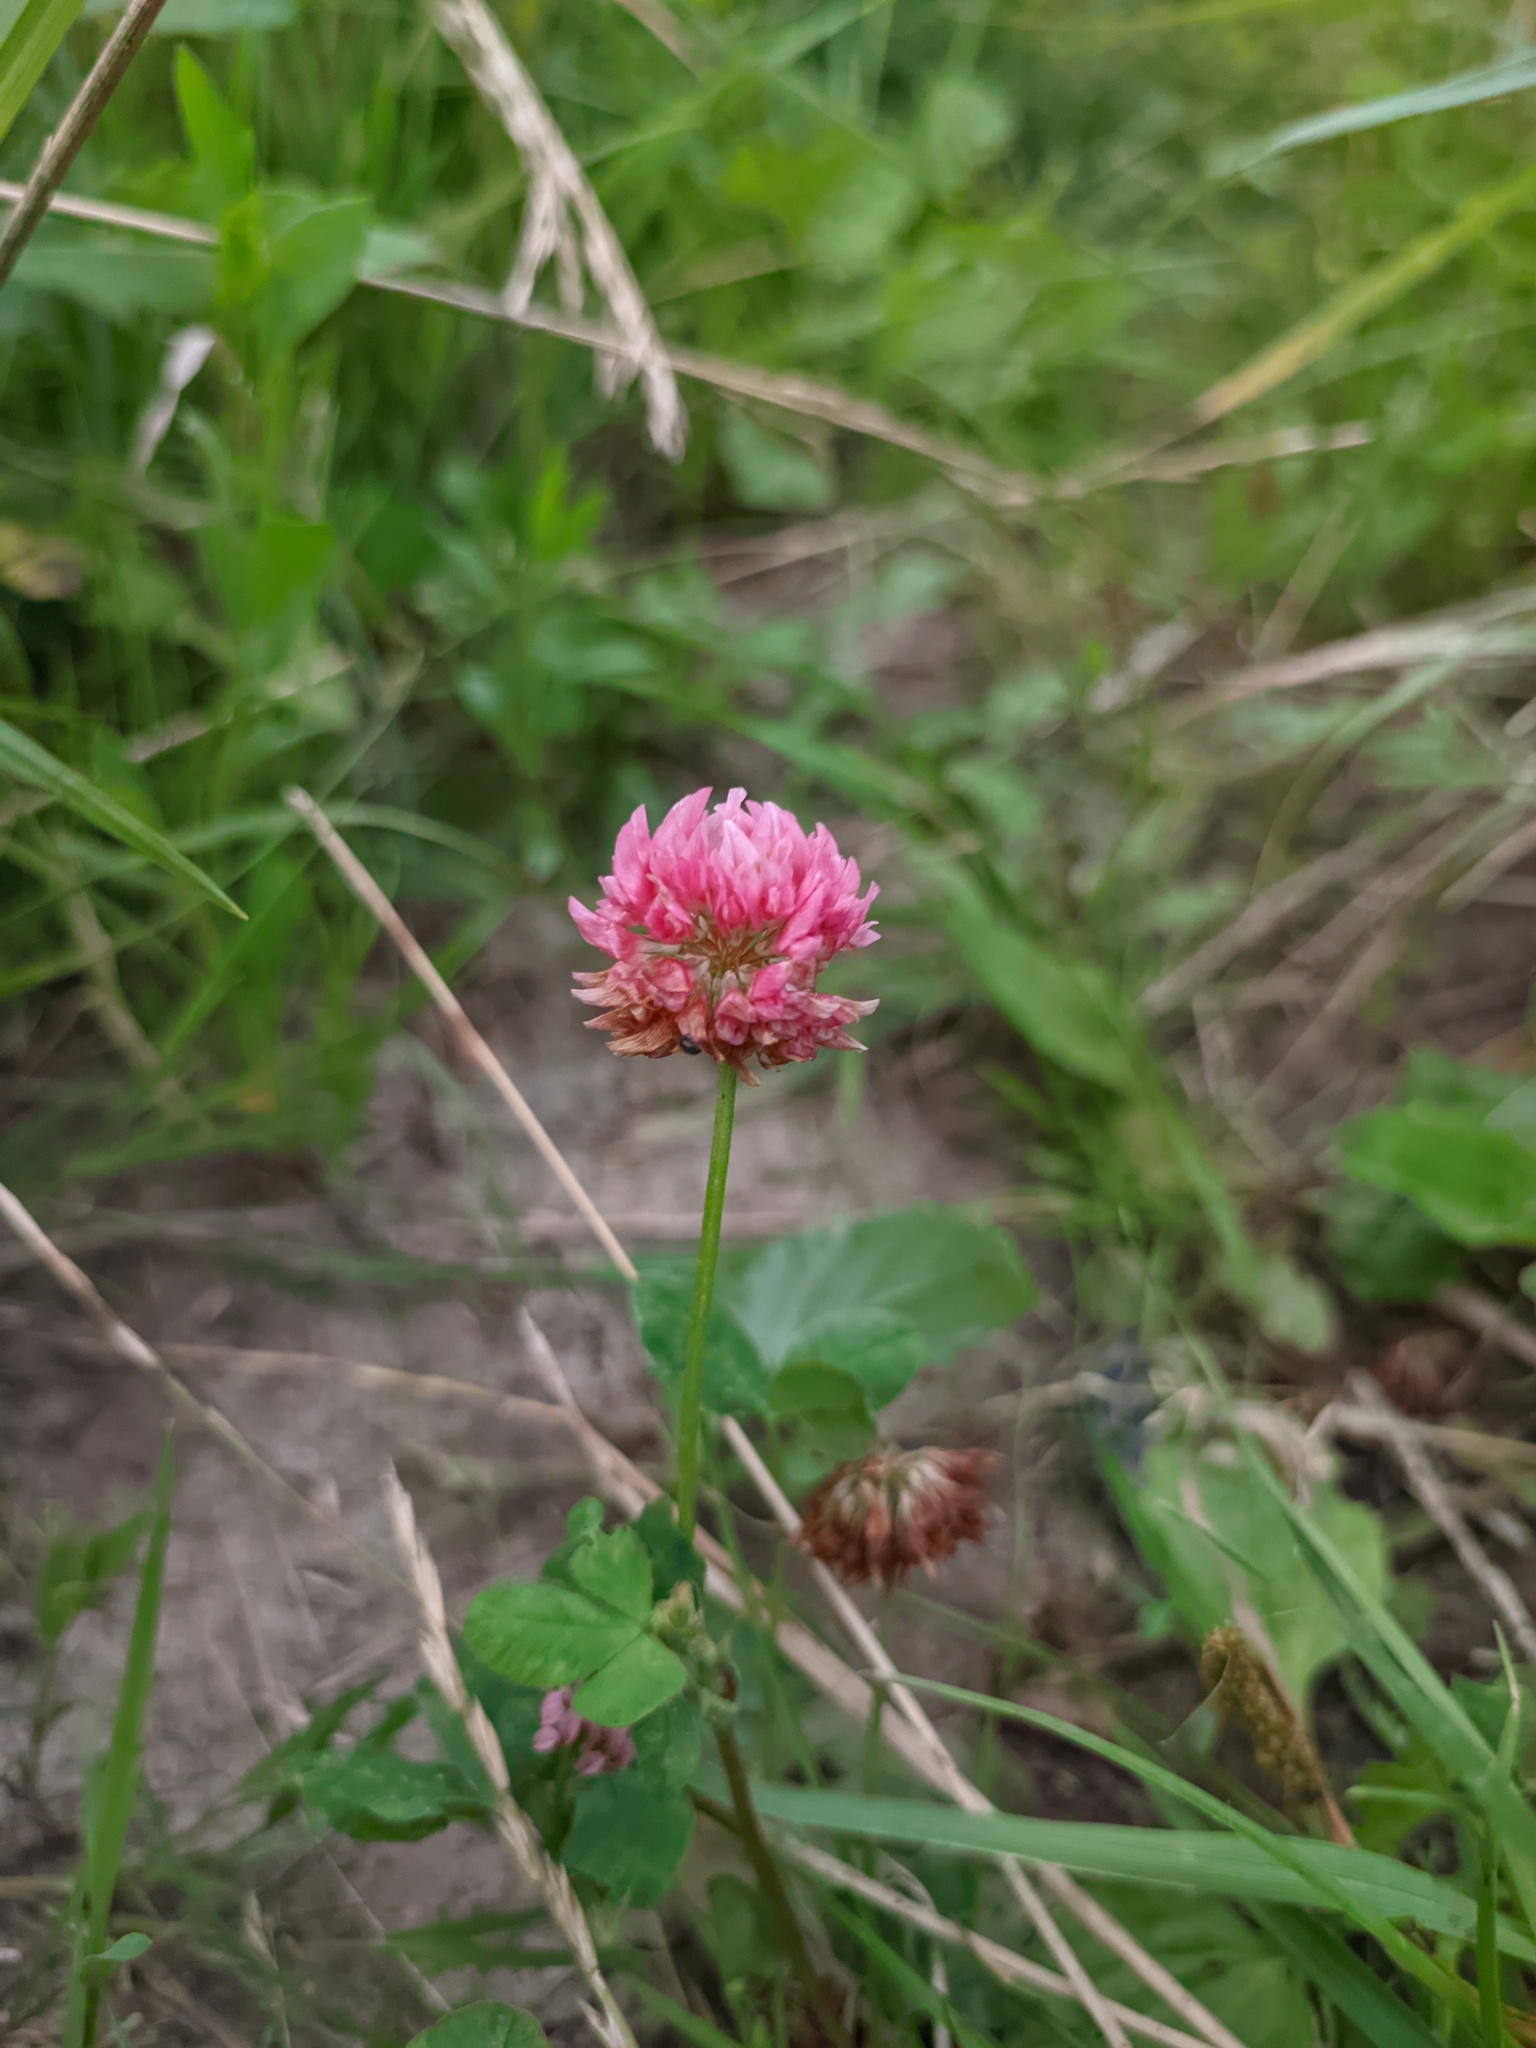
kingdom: Plantae
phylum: Tracheophyta
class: Magnoliopsida
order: Fabales
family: Fabaceae
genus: Trifolium
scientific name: Trifolium hybridum
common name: Alsike clover
